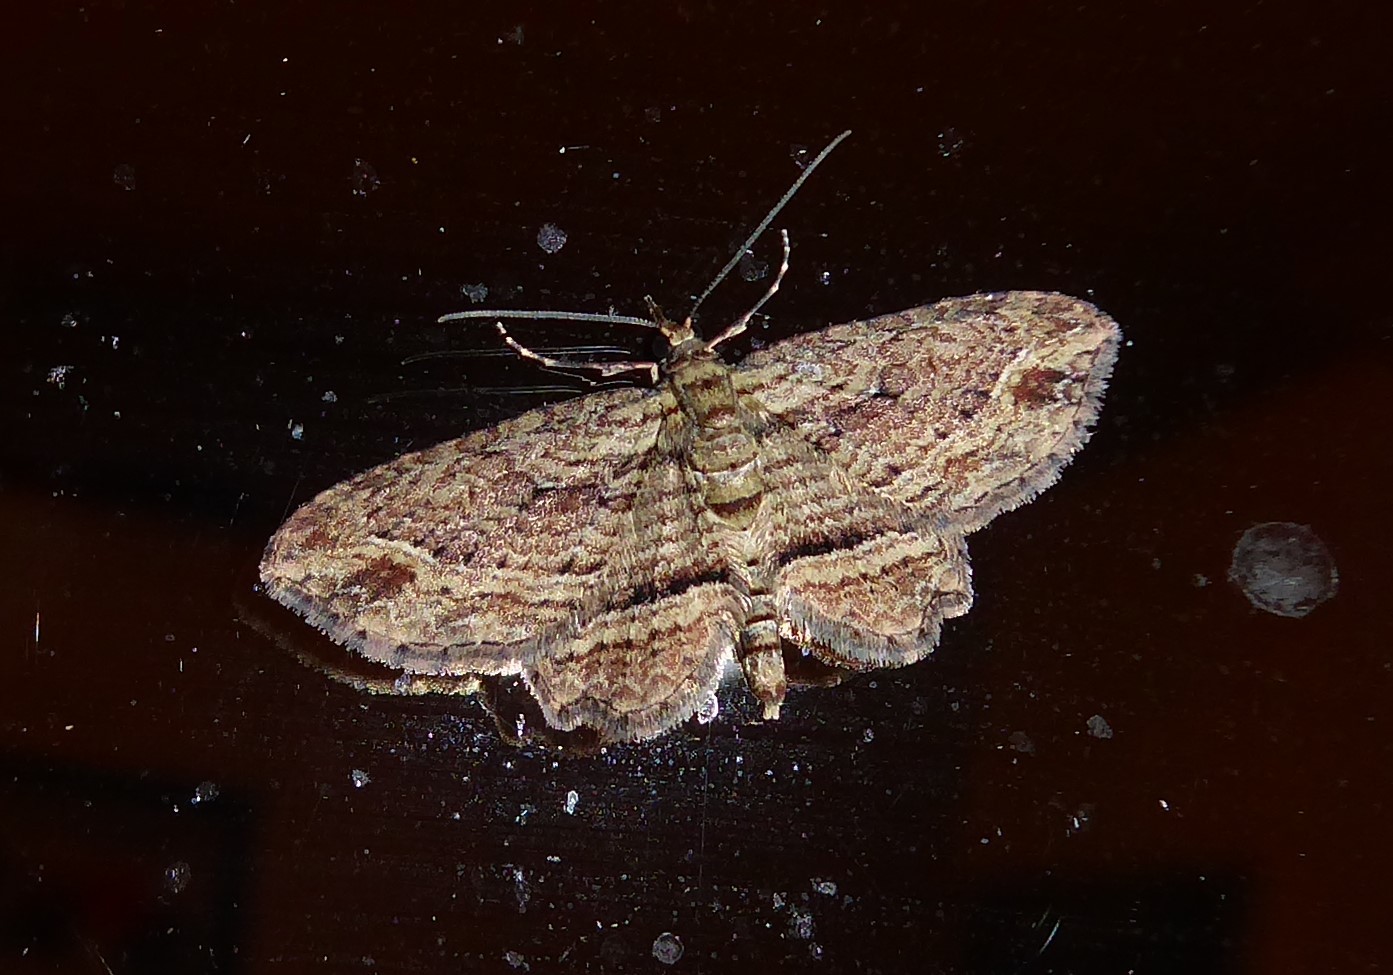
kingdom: Animalia
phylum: Arthropoda
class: Insecta
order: Lepidoptera
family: Geometridae
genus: Chloroclystis
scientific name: Chloroclystis filata
